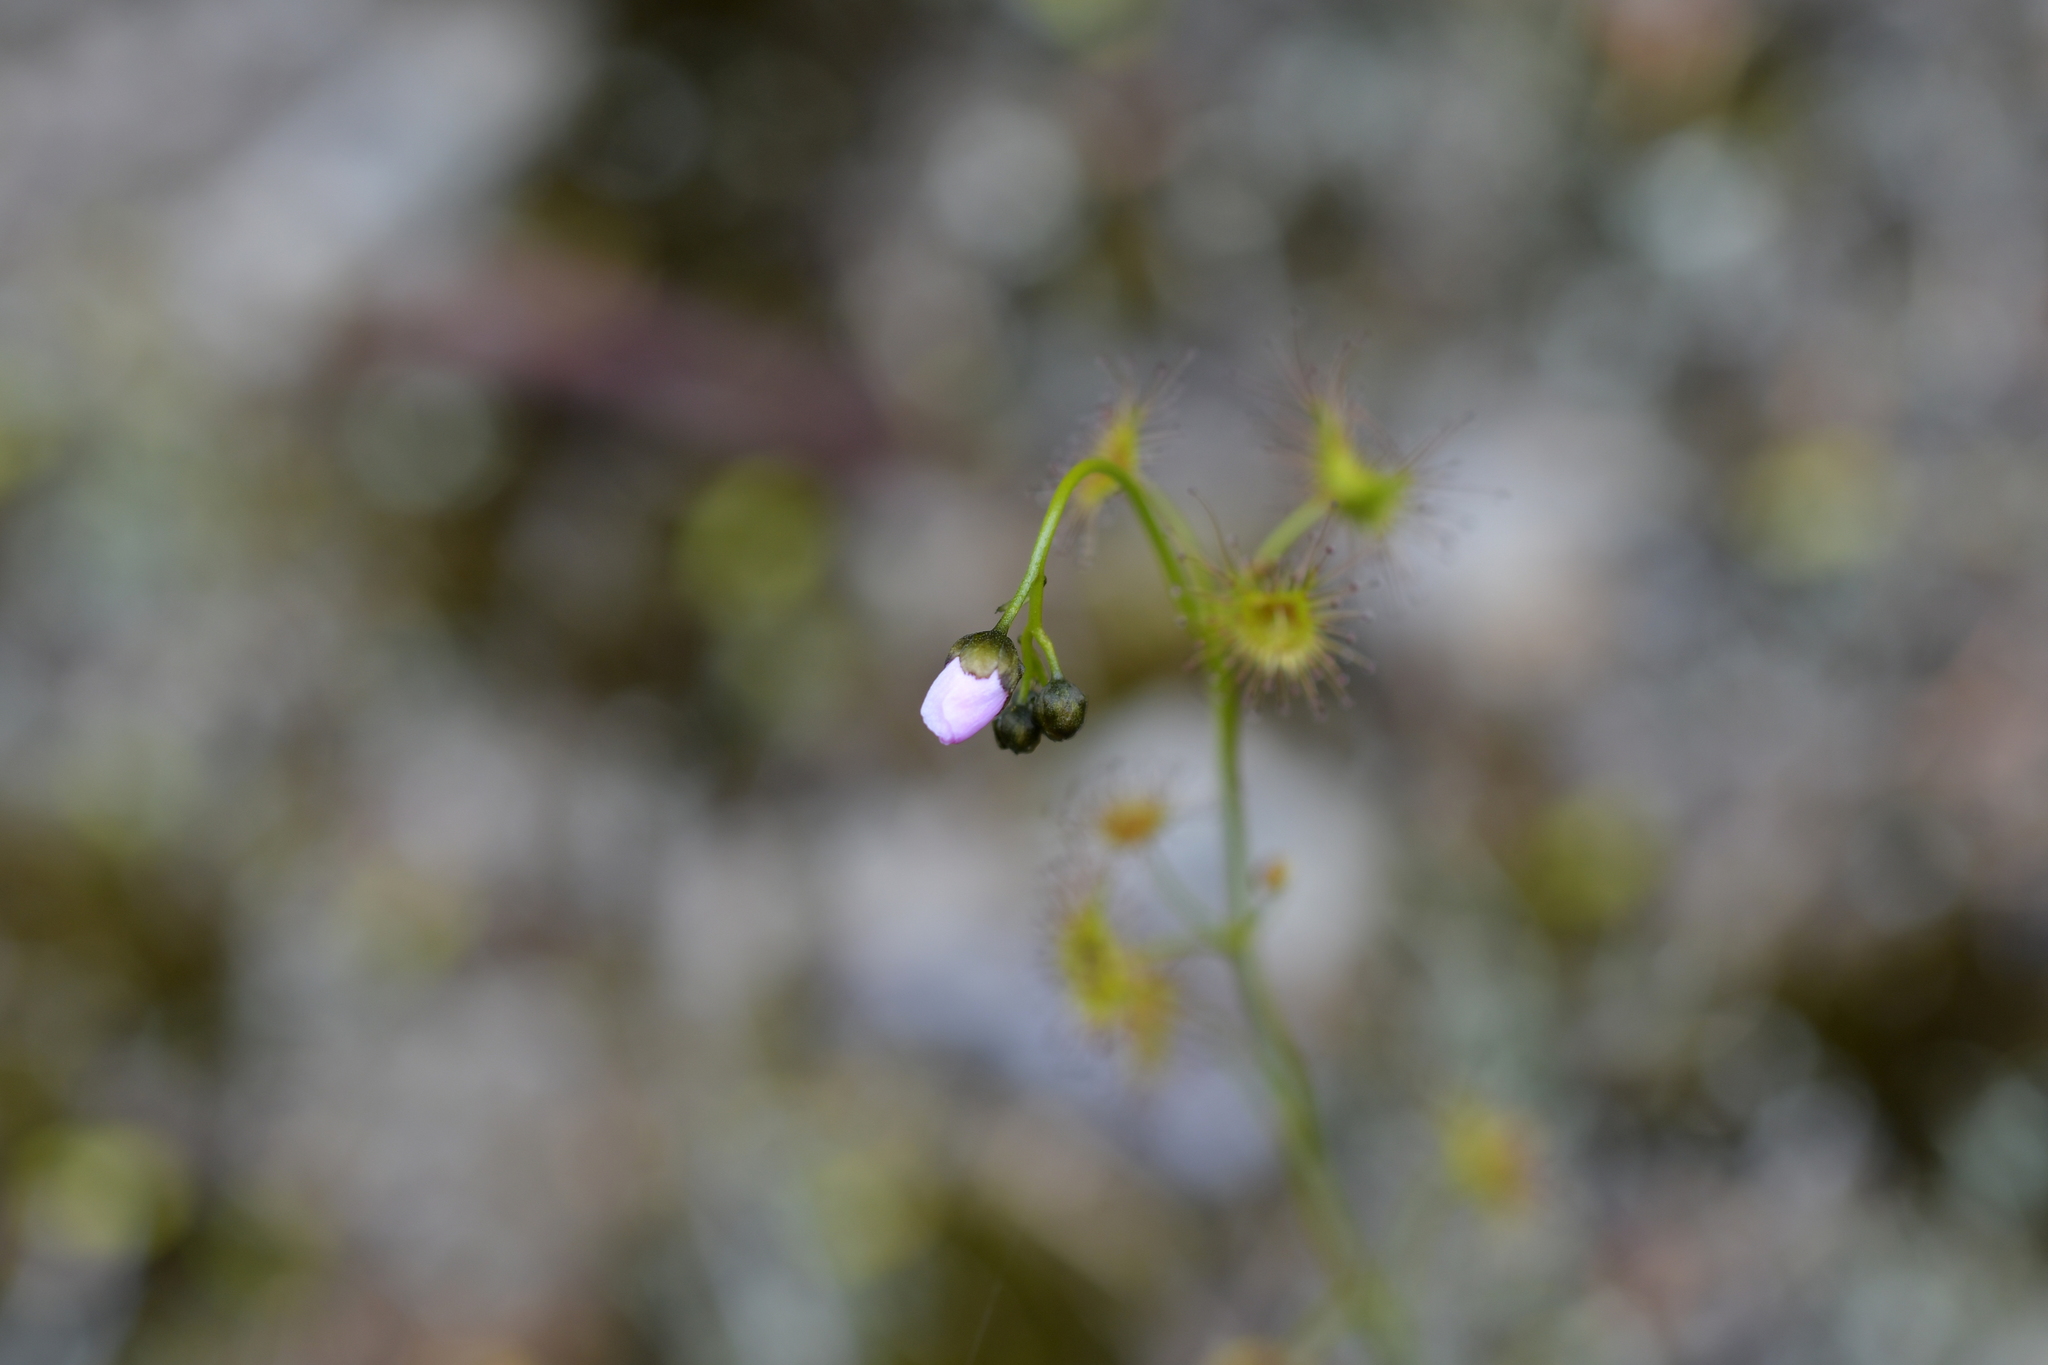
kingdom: Plantae
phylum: Tracheophyta
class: Magnoliopsida
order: Caryophyllales
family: Droseraceae
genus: Drosera
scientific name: Drosera peltata
